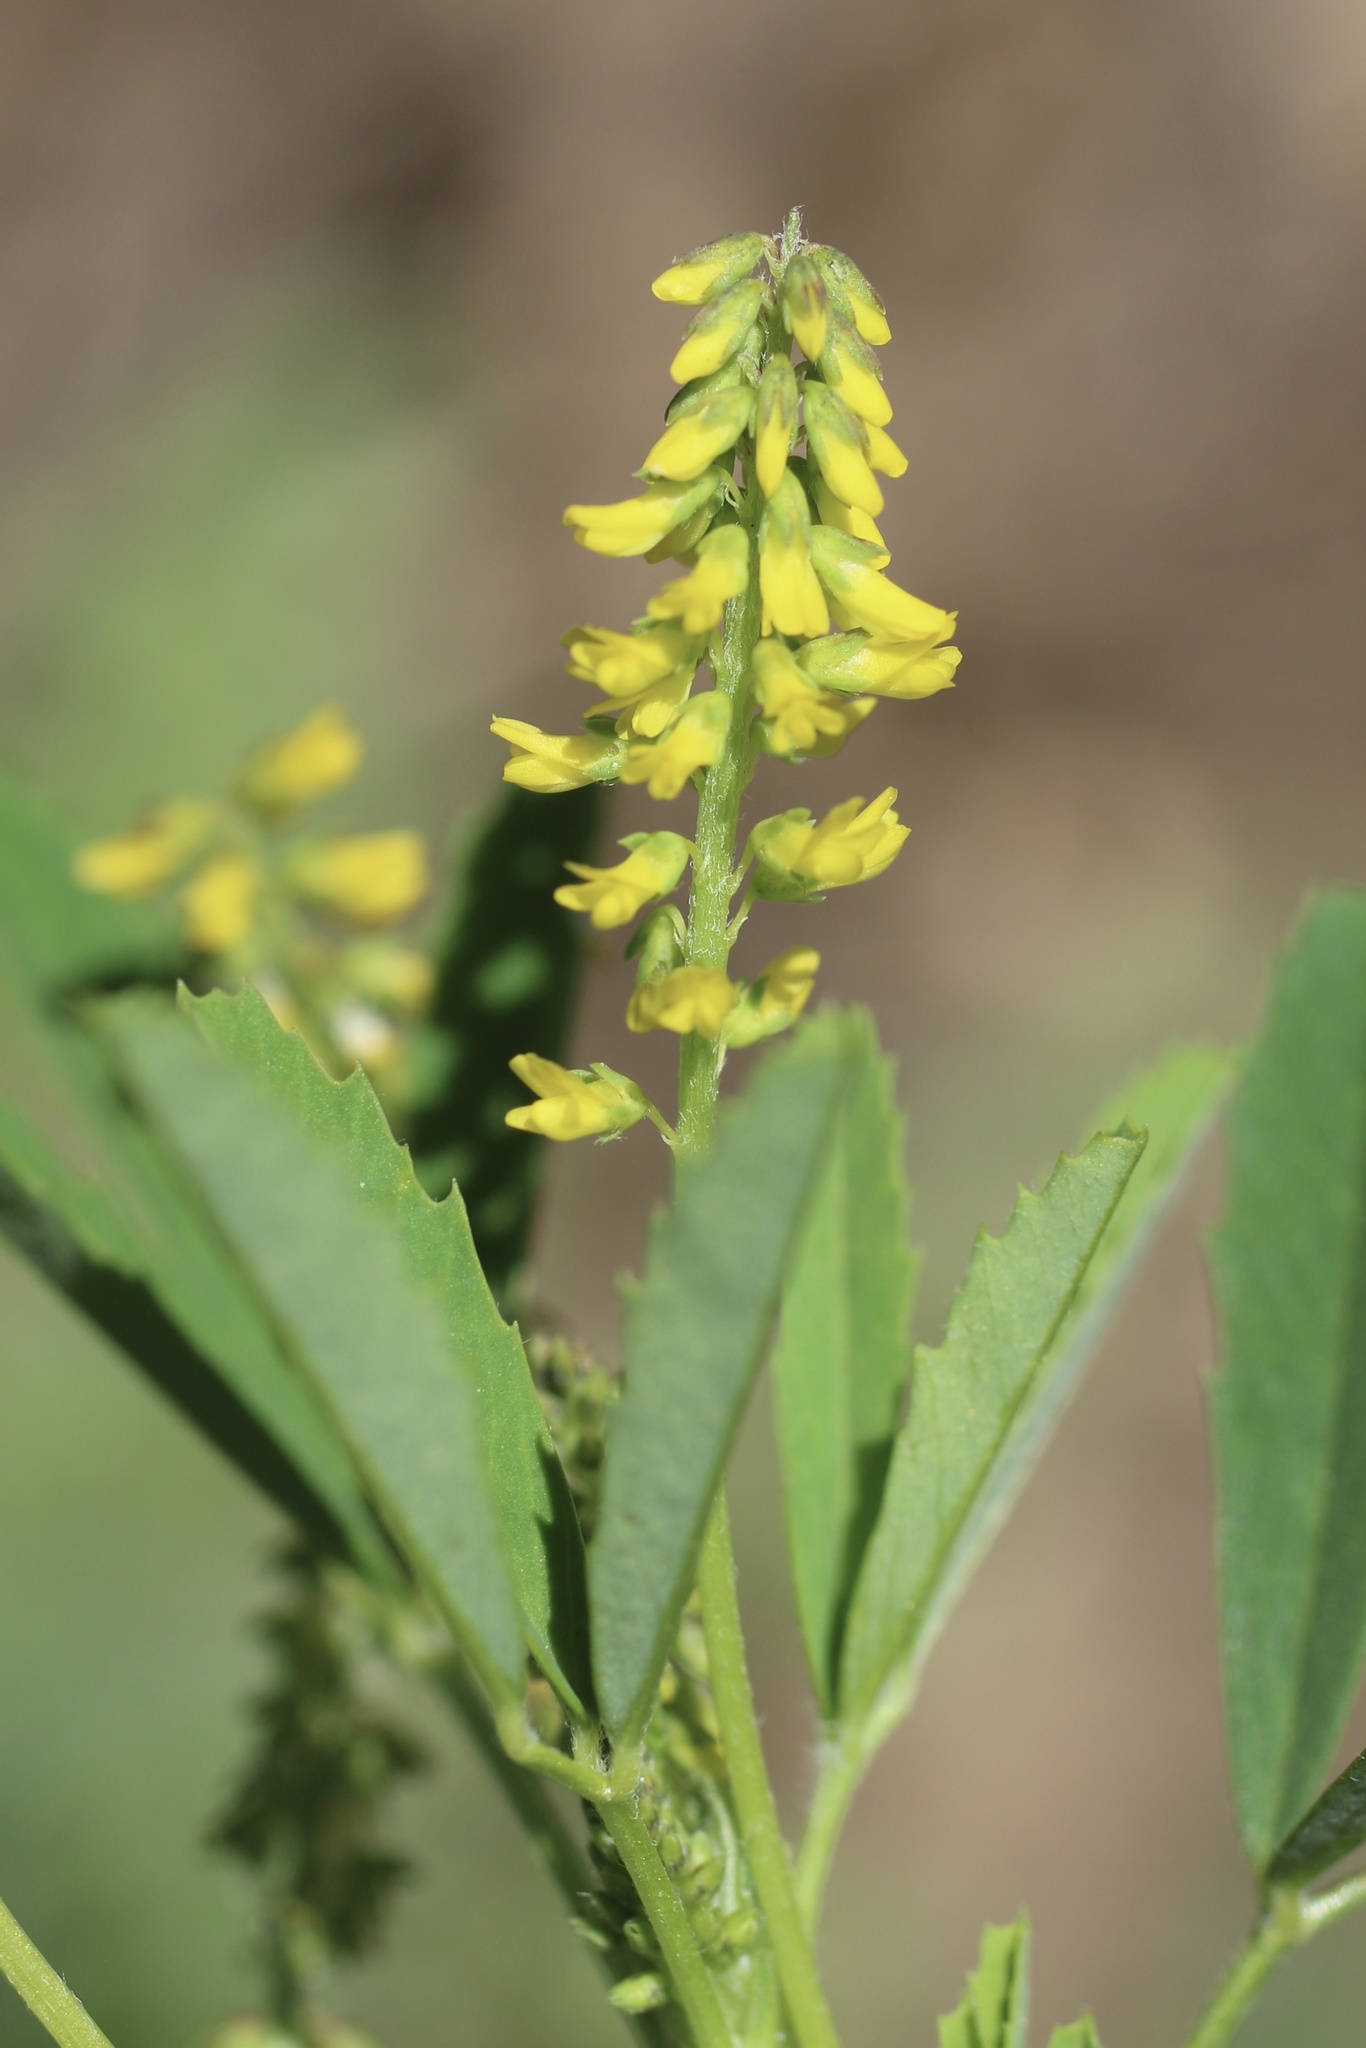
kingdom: Plantae
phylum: Tracheophyta
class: Magnoliopsida
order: Fabales
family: Fabaceae
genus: Melilotus
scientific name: Melilotus indicus
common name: Small melilot
